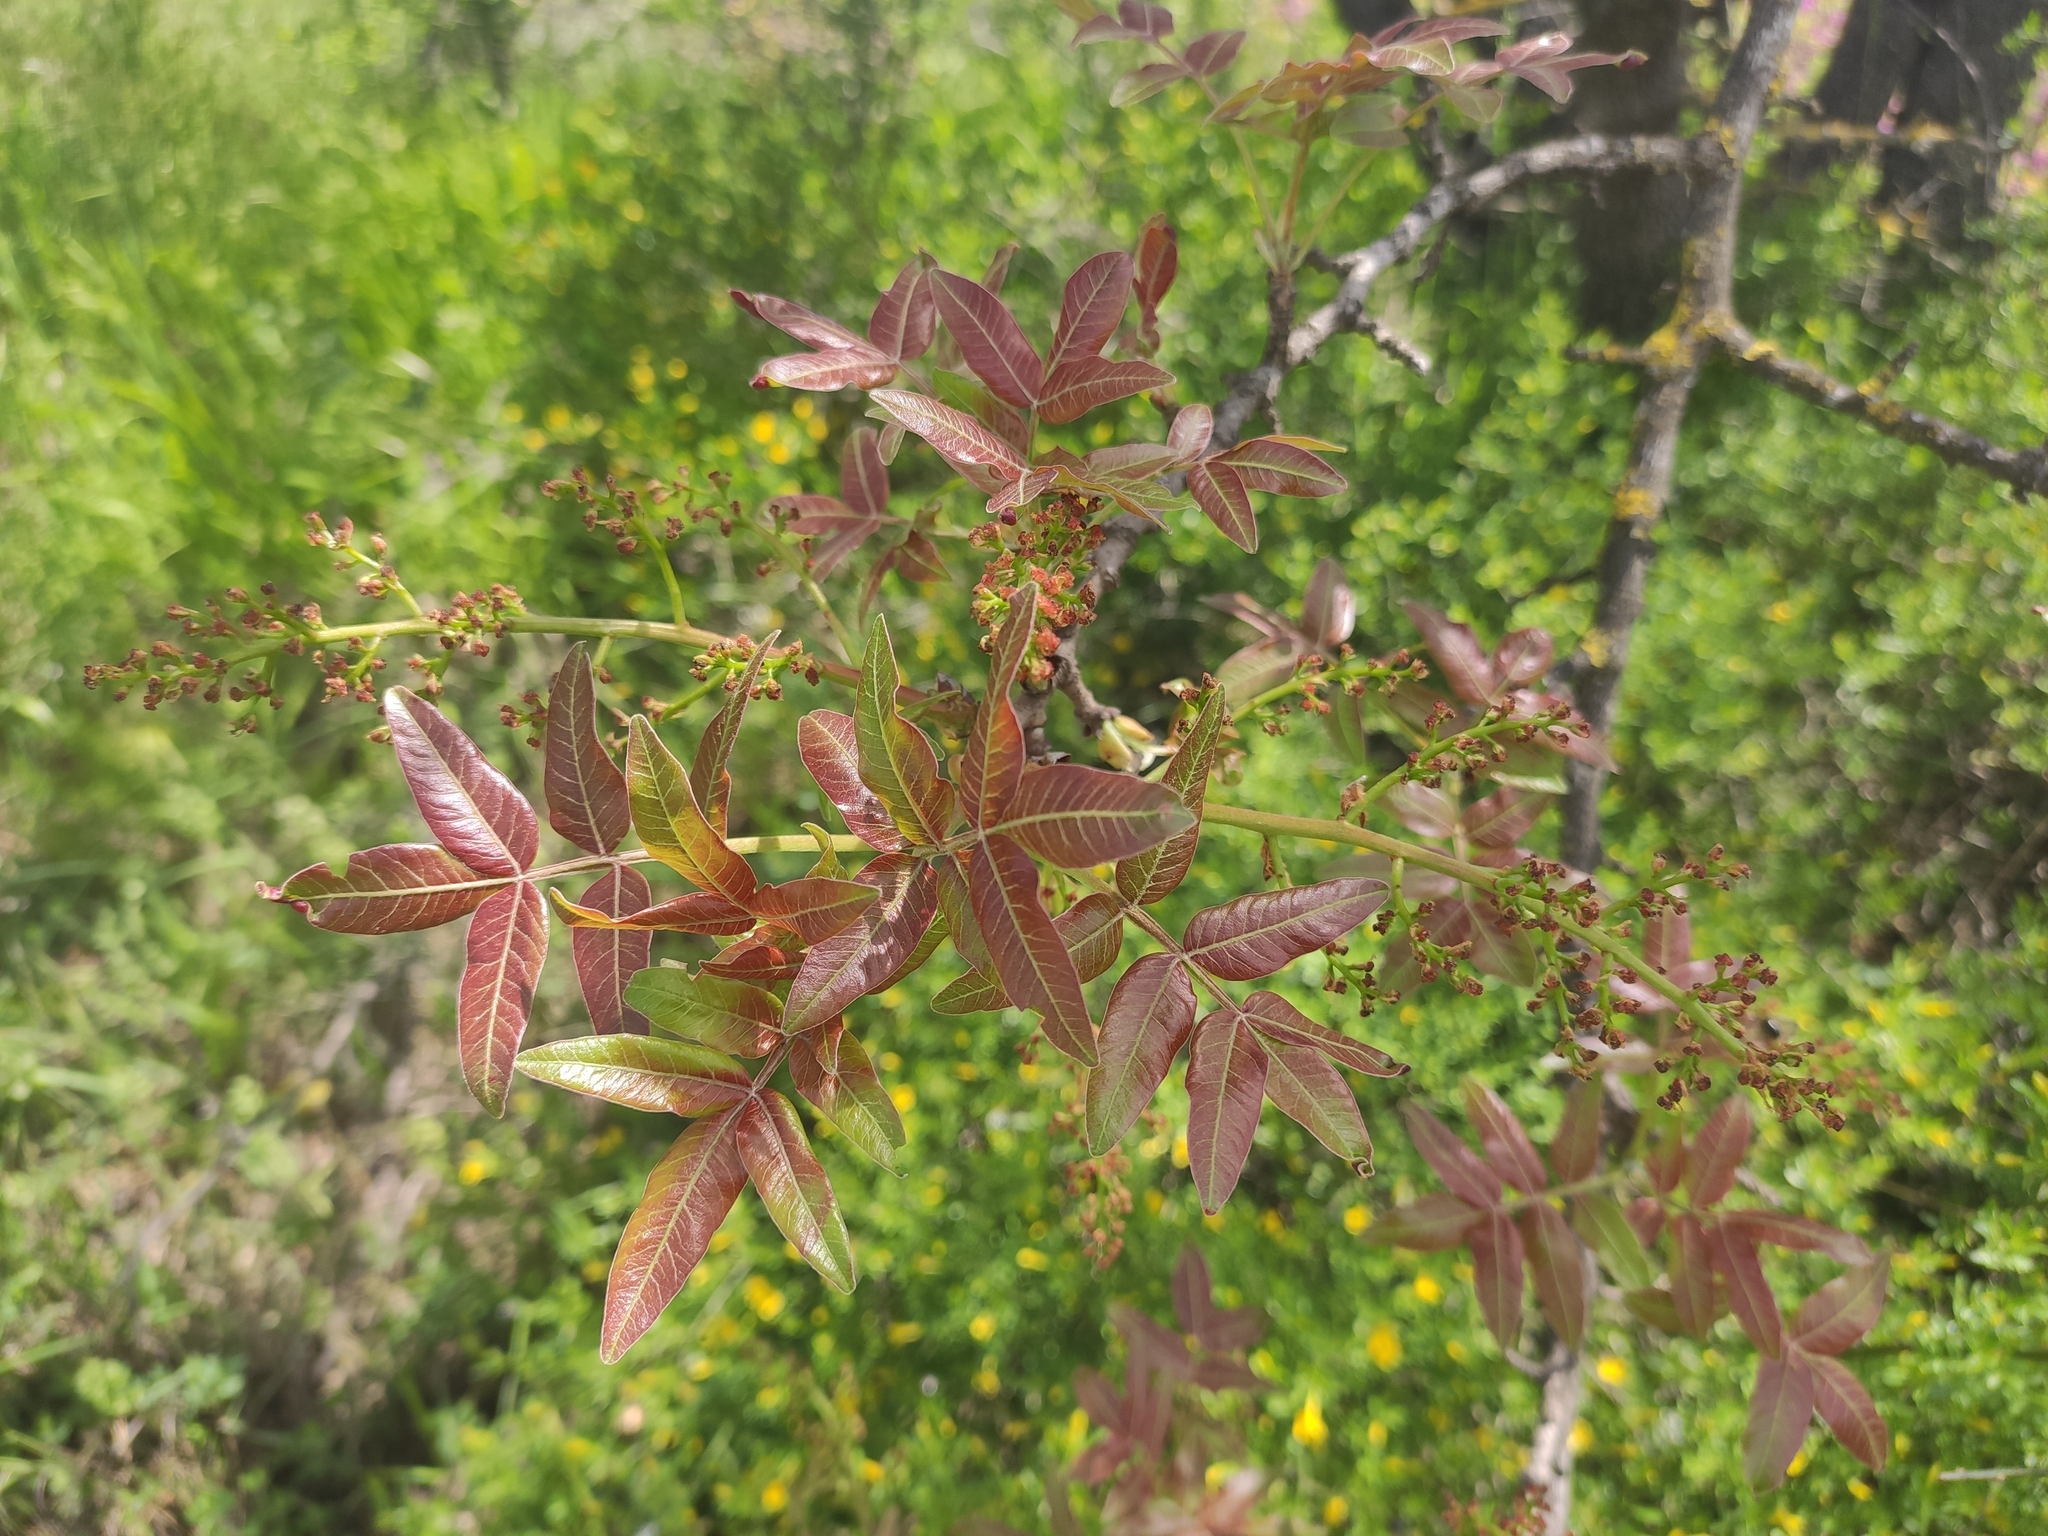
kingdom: Plantae
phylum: Tracheophyta
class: Magnoliopsida
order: Sapindales
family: Anacardiaceae
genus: Pistacia
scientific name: Pistacia atlantica
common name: Mt. atlas mastic tree
